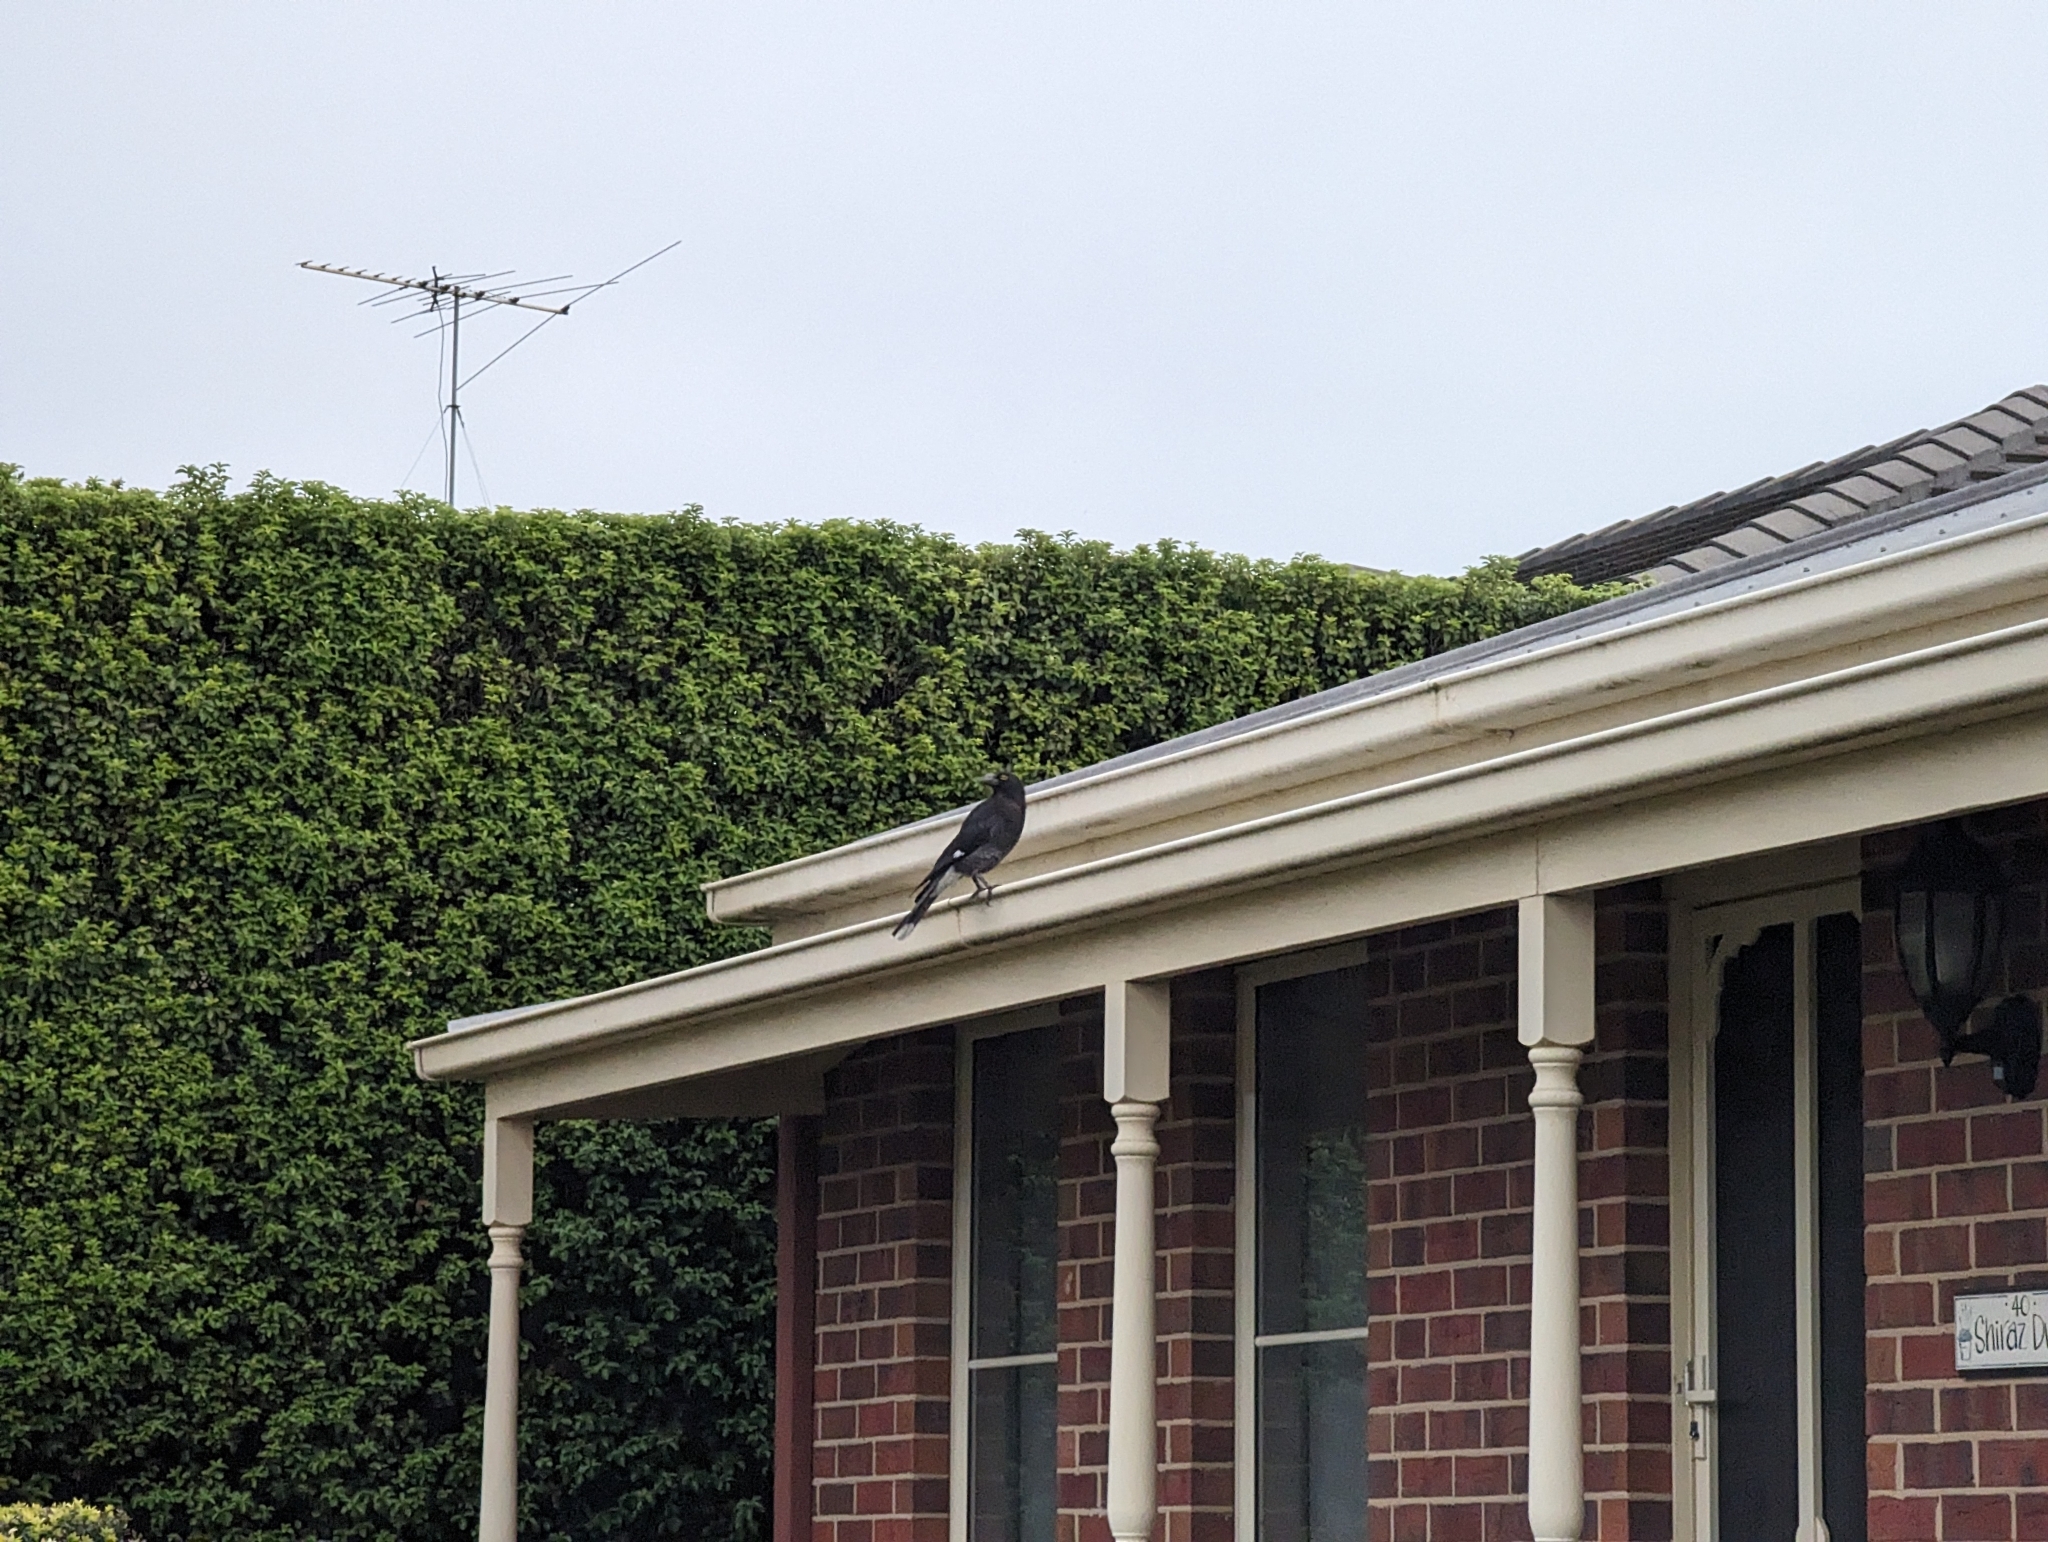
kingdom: Animalia
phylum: Chordata
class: Aves
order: Passeriformes
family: Cracticidae
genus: Strepera
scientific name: Strepera graculina
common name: Pied currawong
